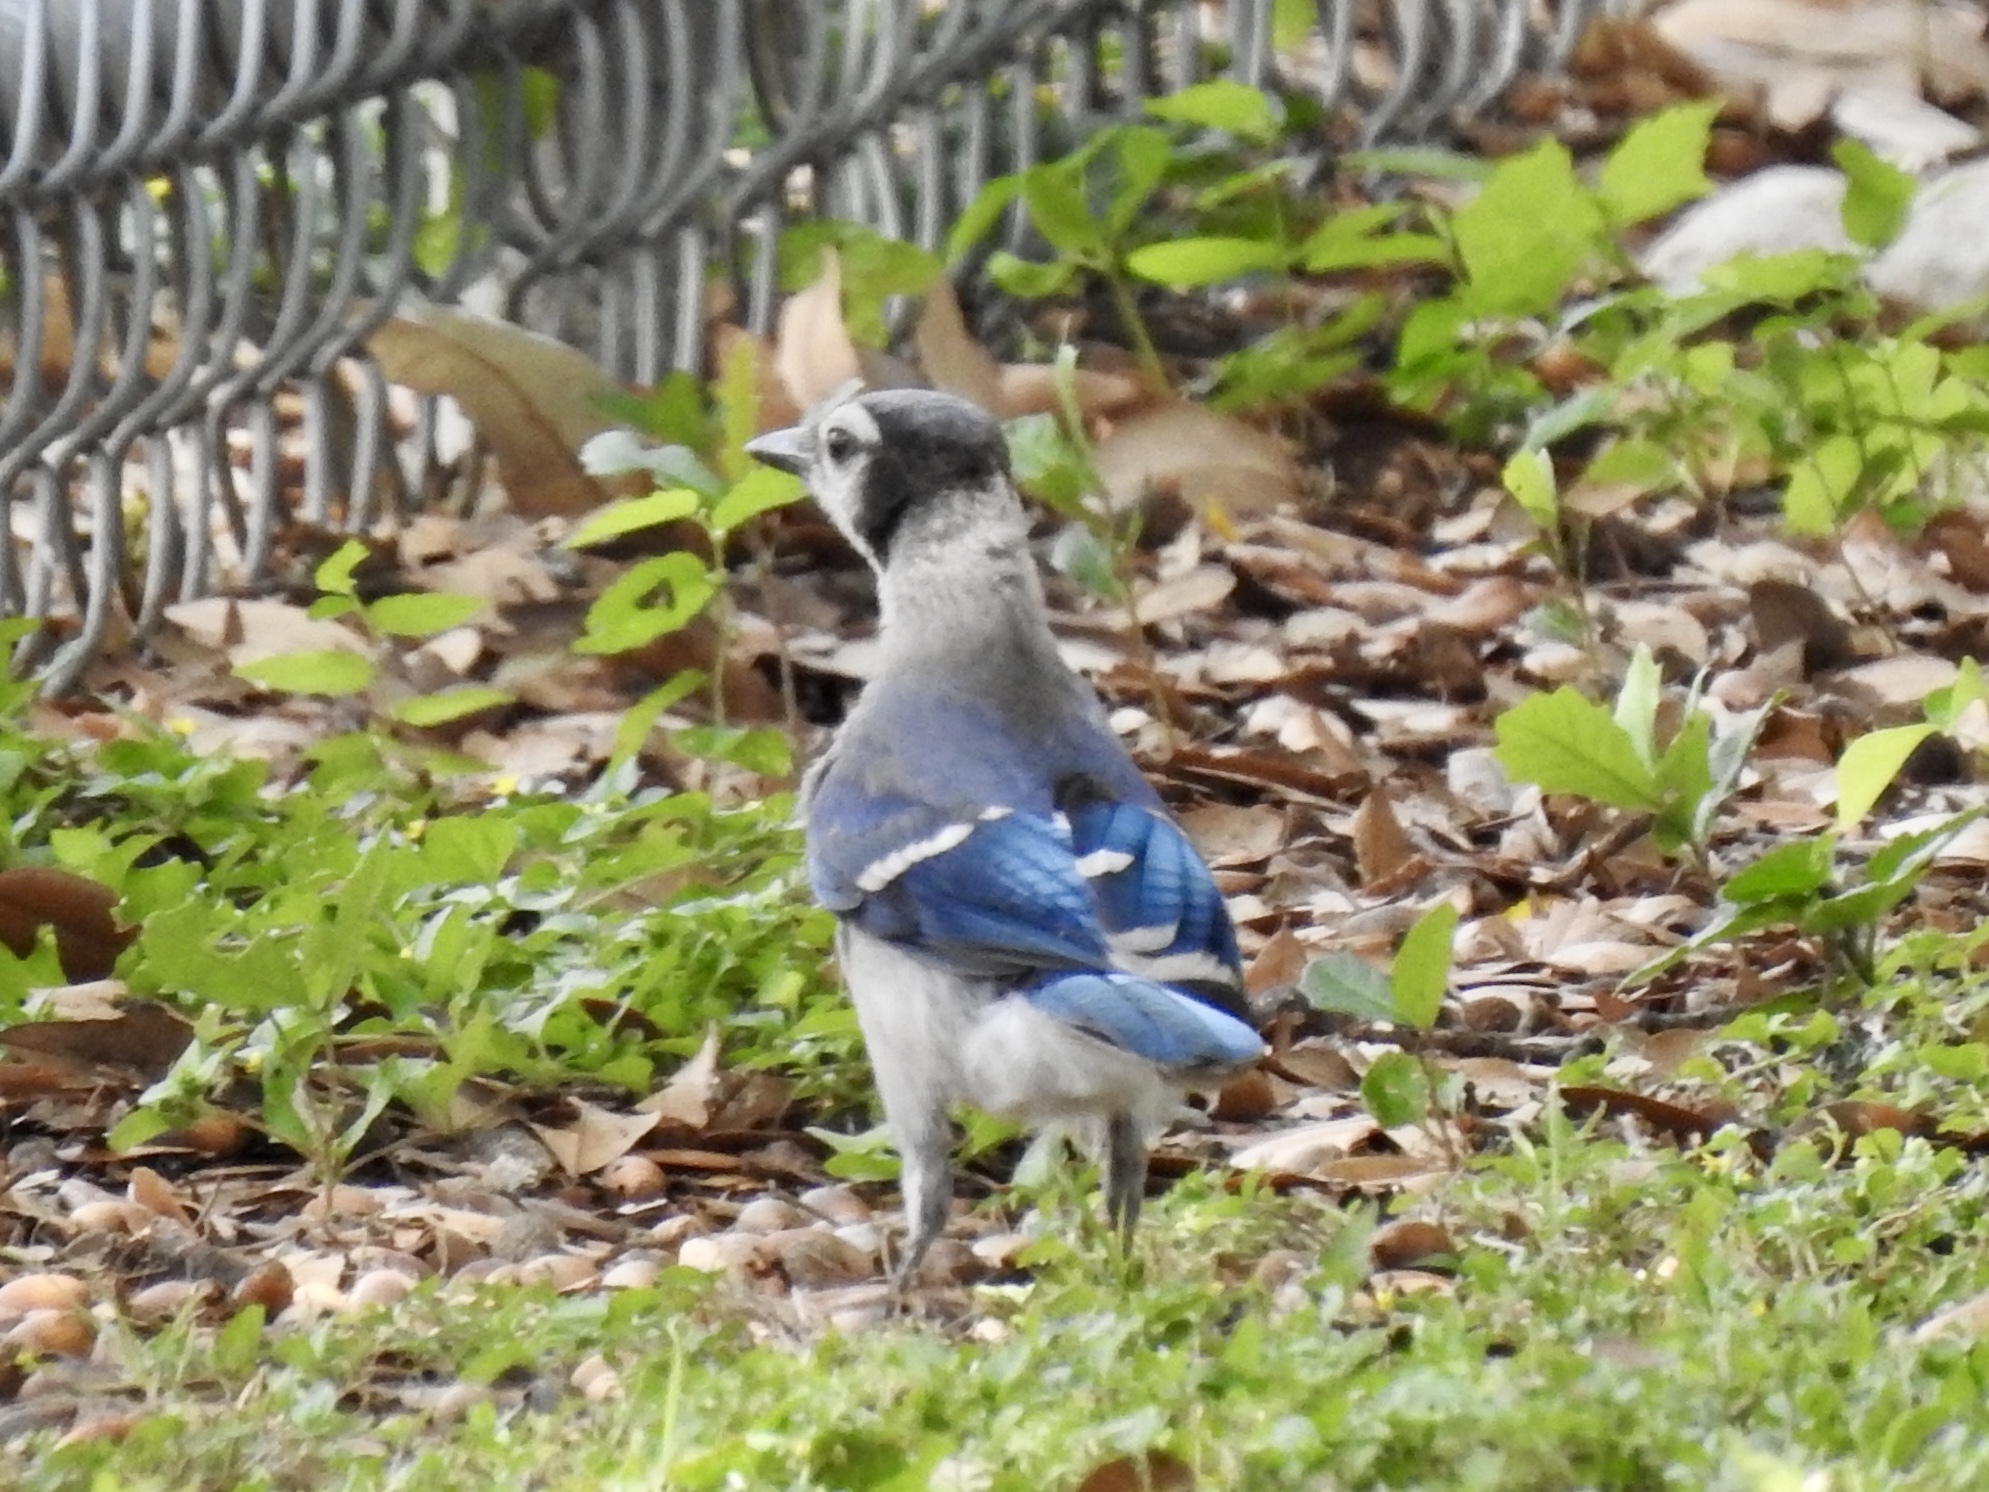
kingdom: Animalia
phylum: Chordata
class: Aves
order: Passeriformes
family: Corvidae
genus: Cyanocitta
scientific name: Cyanocitta cristata
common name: Blue jay
